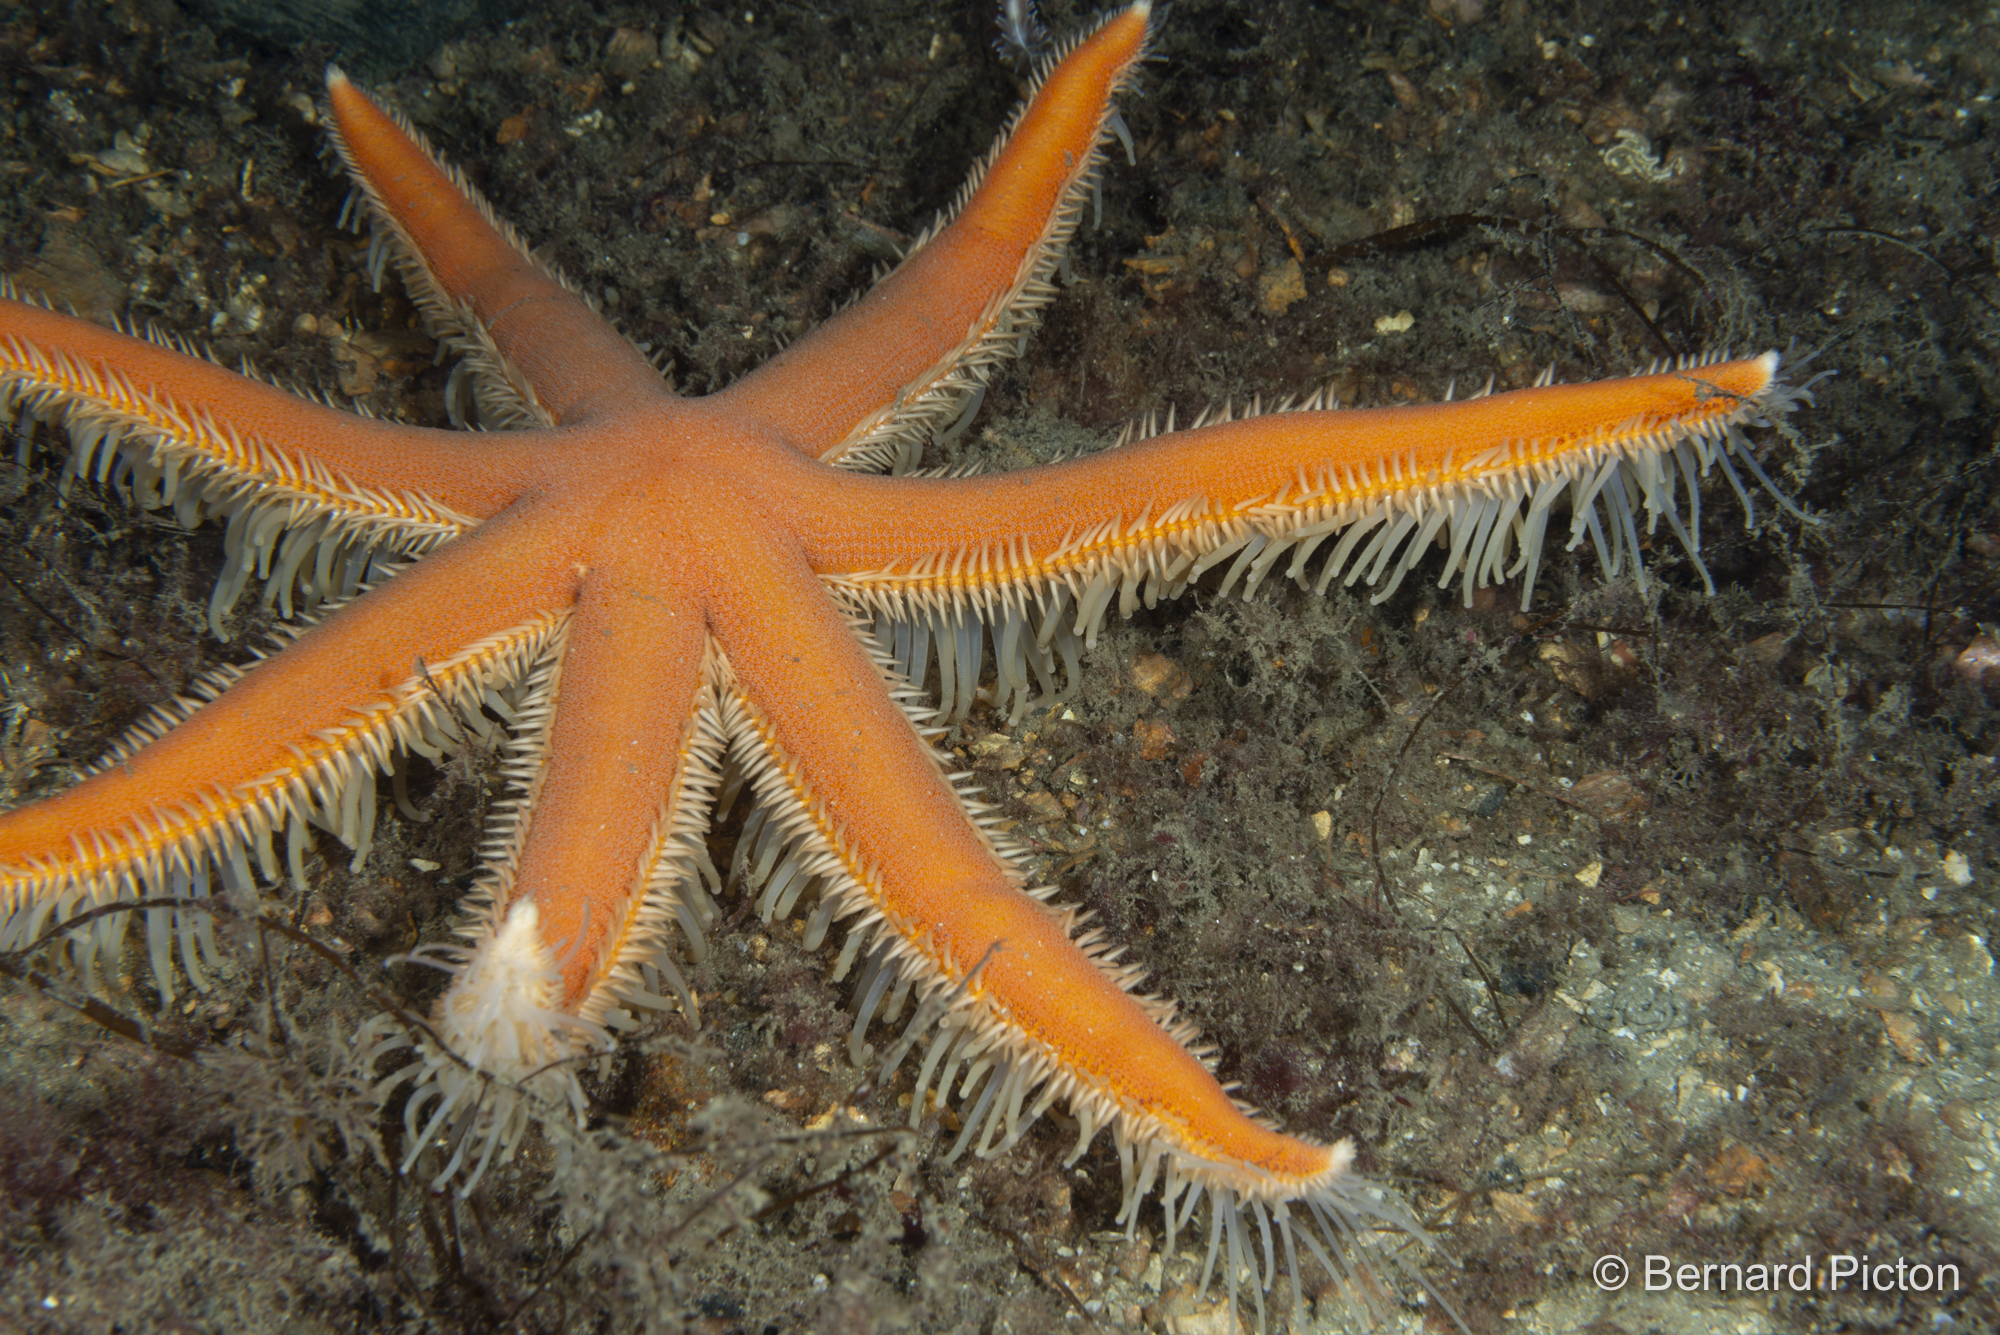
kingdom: Animalia
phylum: Echinodermata
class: Asteroidea
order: Paxillosida
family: Luidiidae
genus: Luidia
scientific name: Luidia ciliaris
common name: Seven-armed starfish
